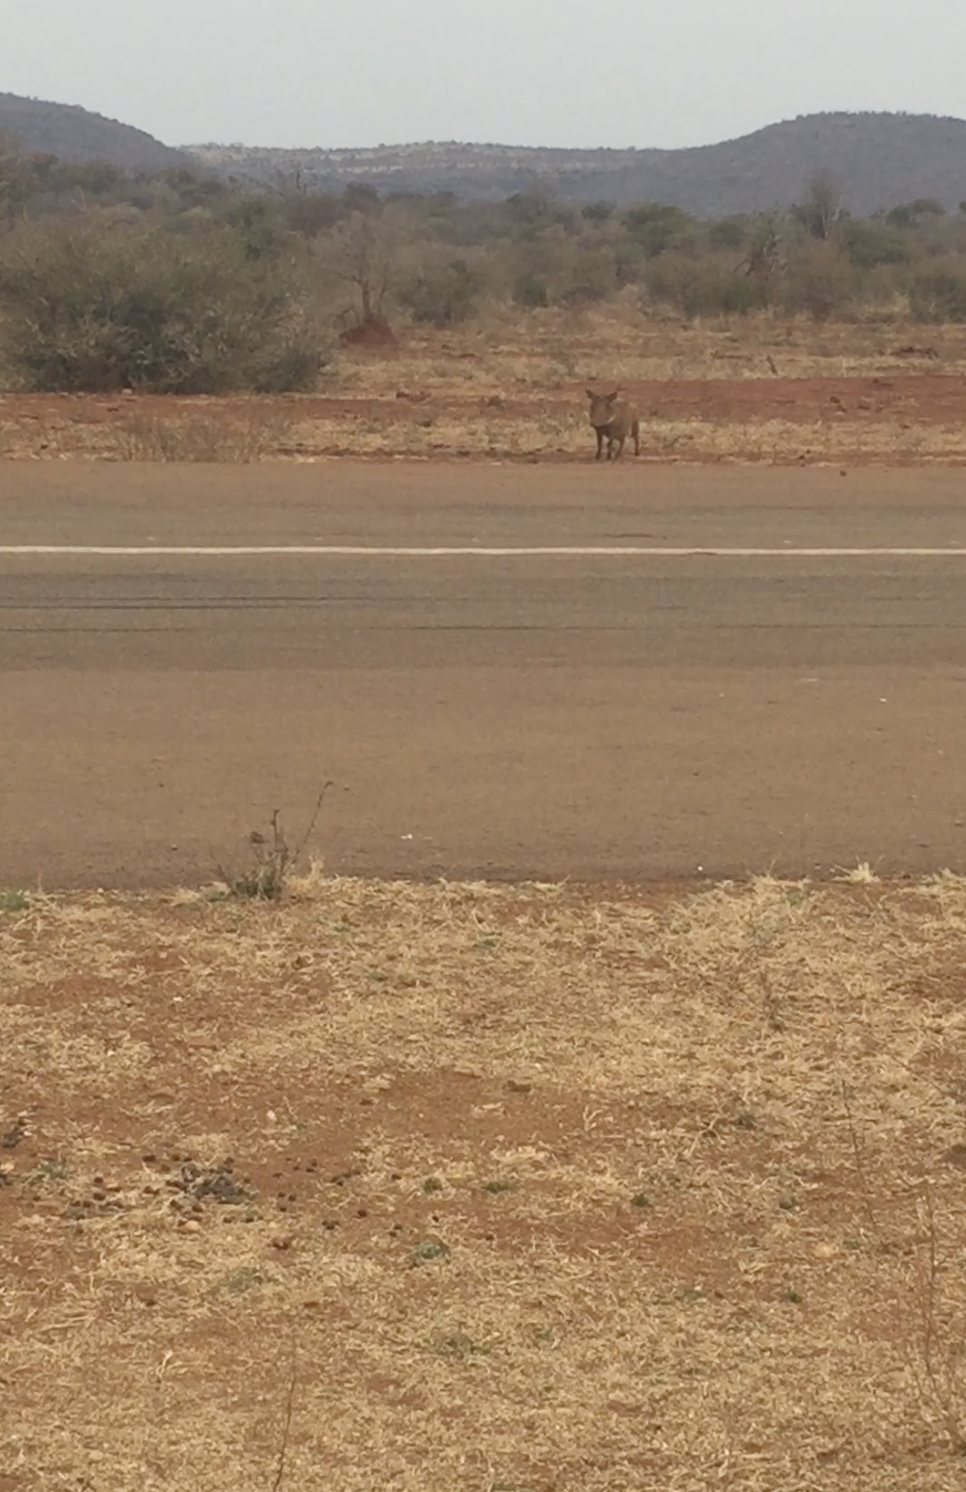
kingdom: Animalia
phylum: Chordata
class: Mammalia
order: Artiodactyla
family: Suidae
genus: Phacochoerus
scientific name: Phacochoerus africanus
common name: Common warthog
